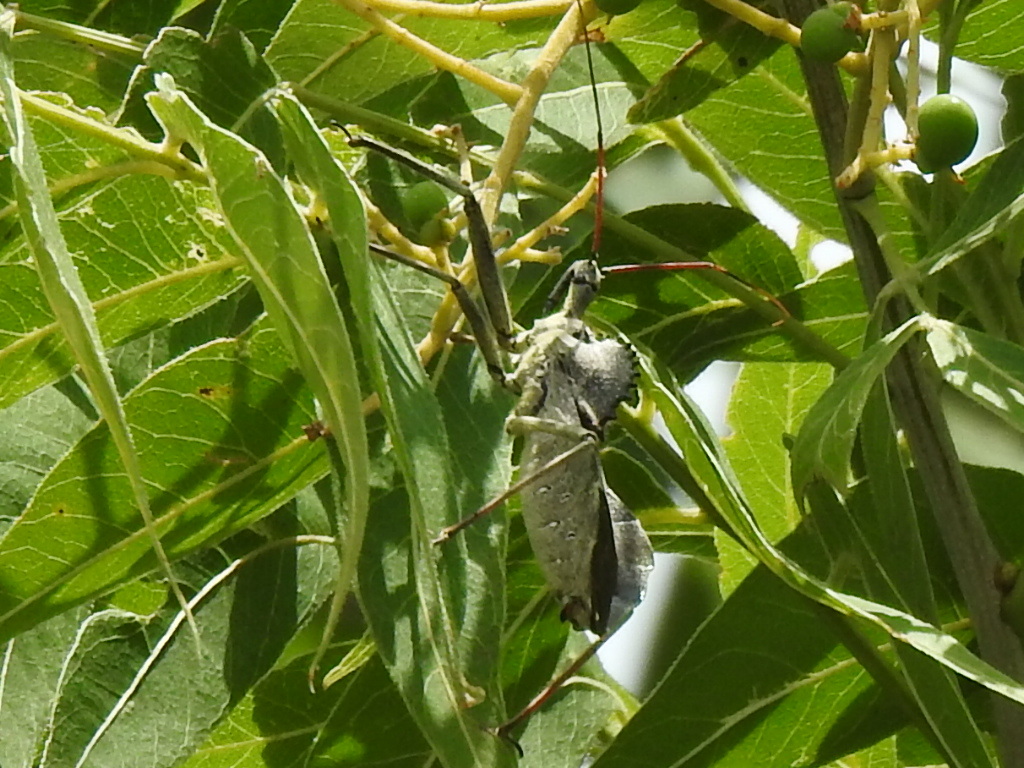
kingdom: Animalia
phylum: Arthropoda
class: Insecta
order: Hemiptera
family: Reduviidae
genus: Arilus
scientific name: Arilus cristatus
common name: North american wheel bug
